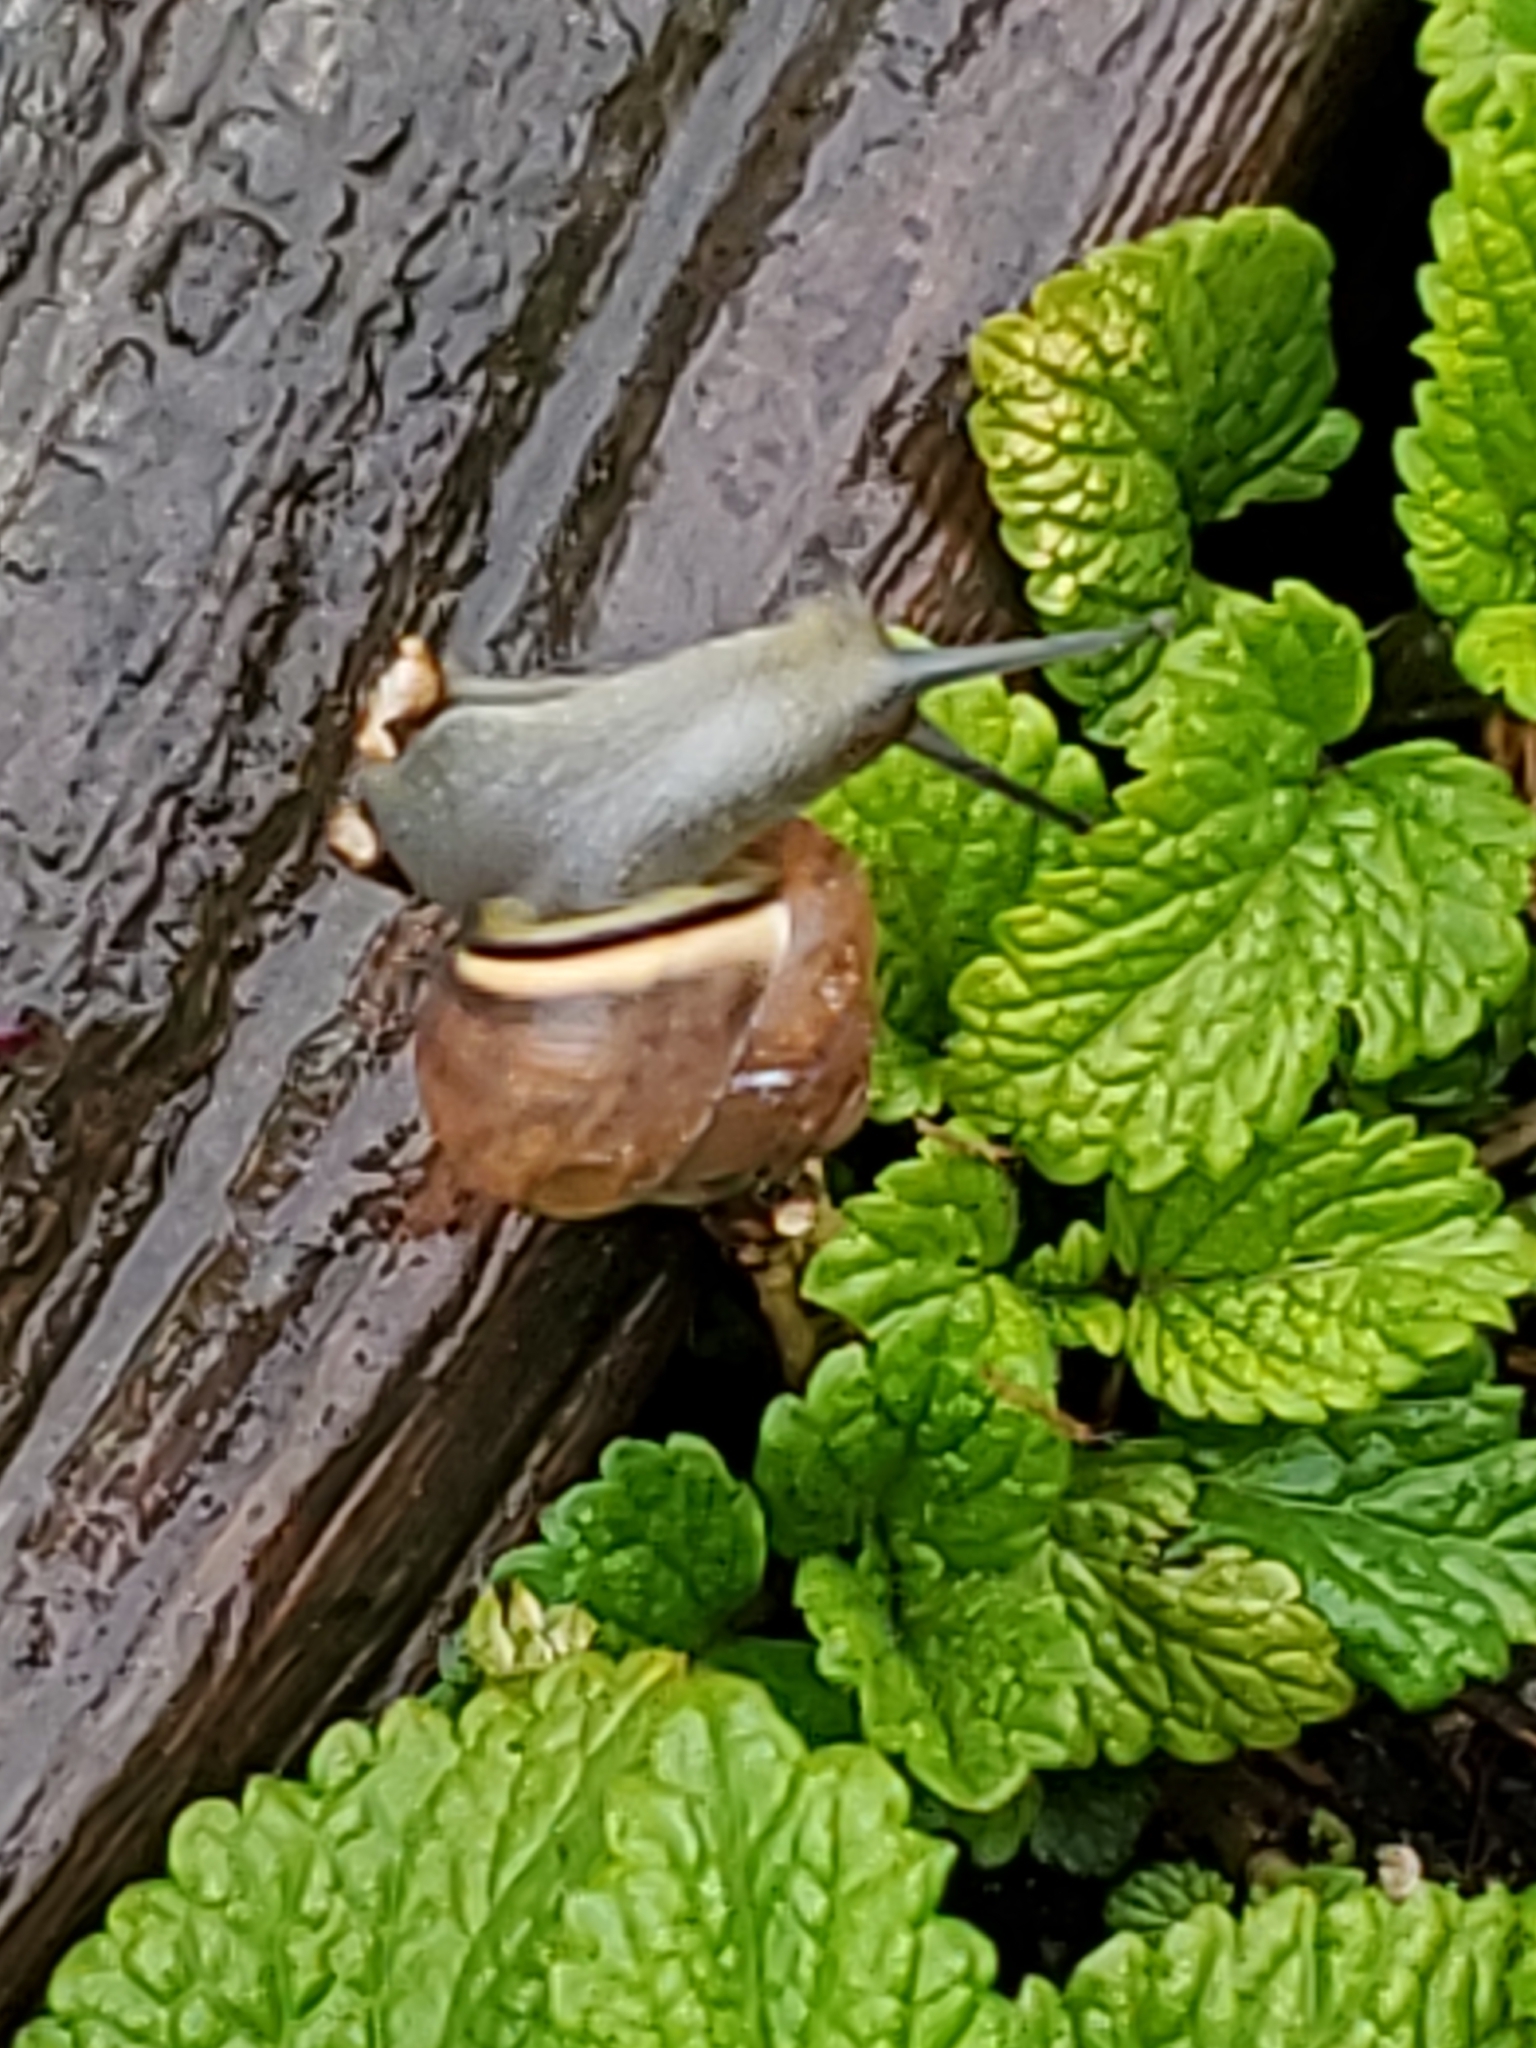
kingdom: Animalia
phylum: Mollusca
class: Gastropoda
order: Stylommatophora
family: Helicidae
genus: Cepaea
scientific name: Cepaea nemoralis
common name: Grovesnail
